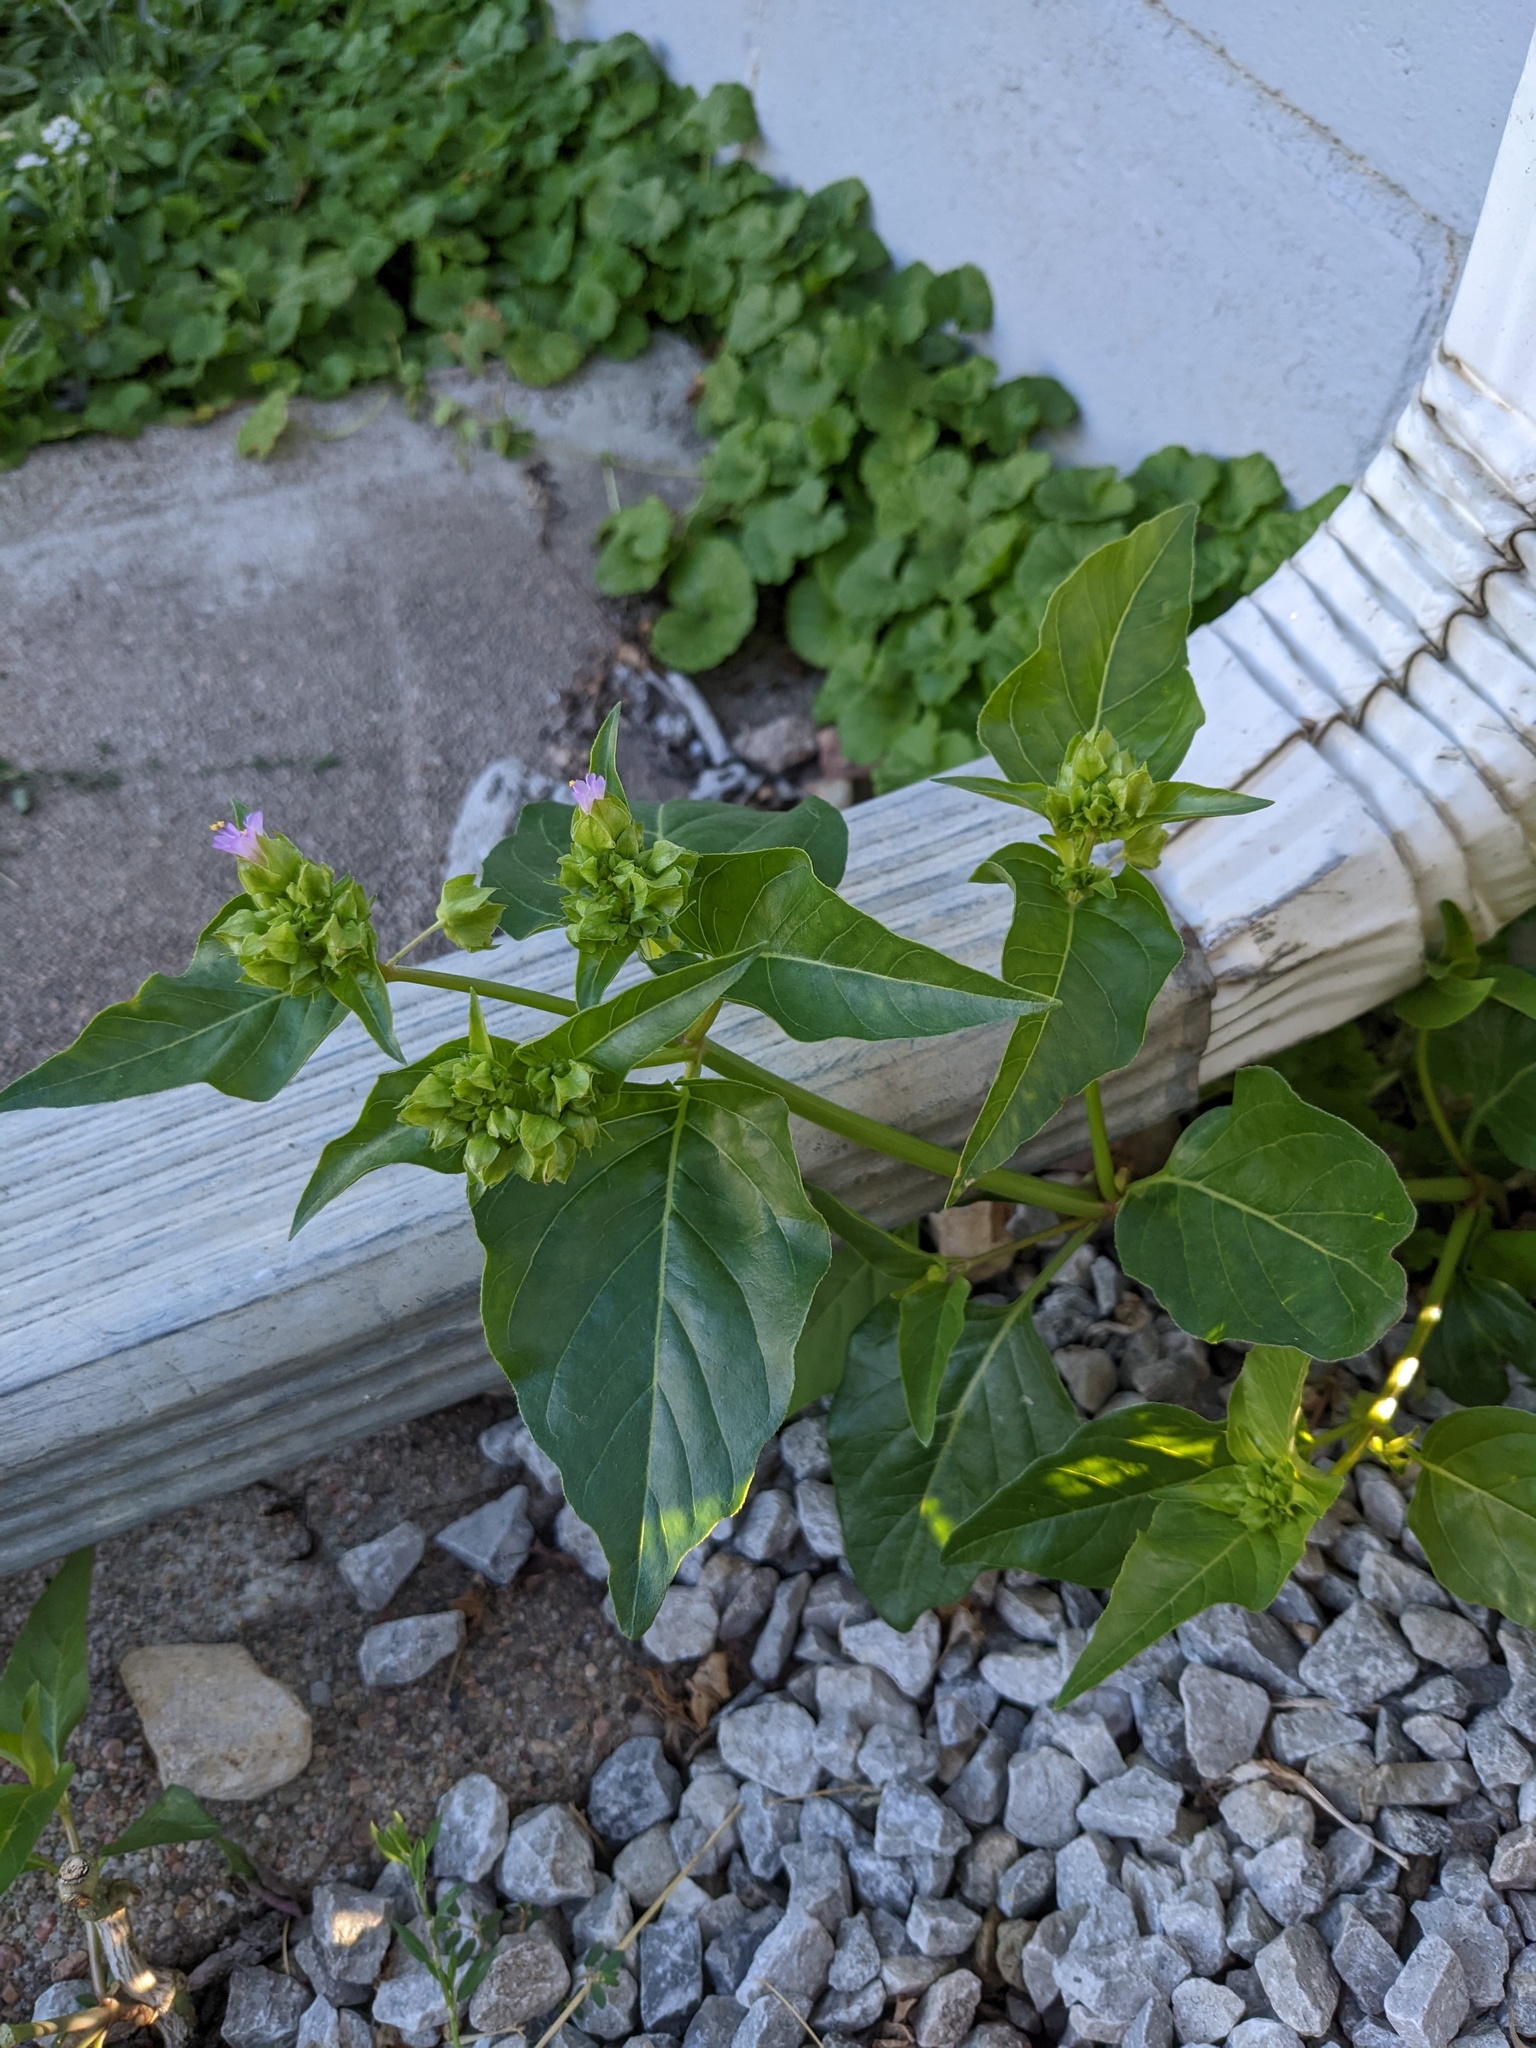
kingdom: Plantae
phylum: Tracheophyta
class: Magnoliopsida
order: Caryophyllales
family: Nyctaginaceae
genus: Mirabilis
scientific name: Mirabilis nyctaginea
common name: Umbrella wort
